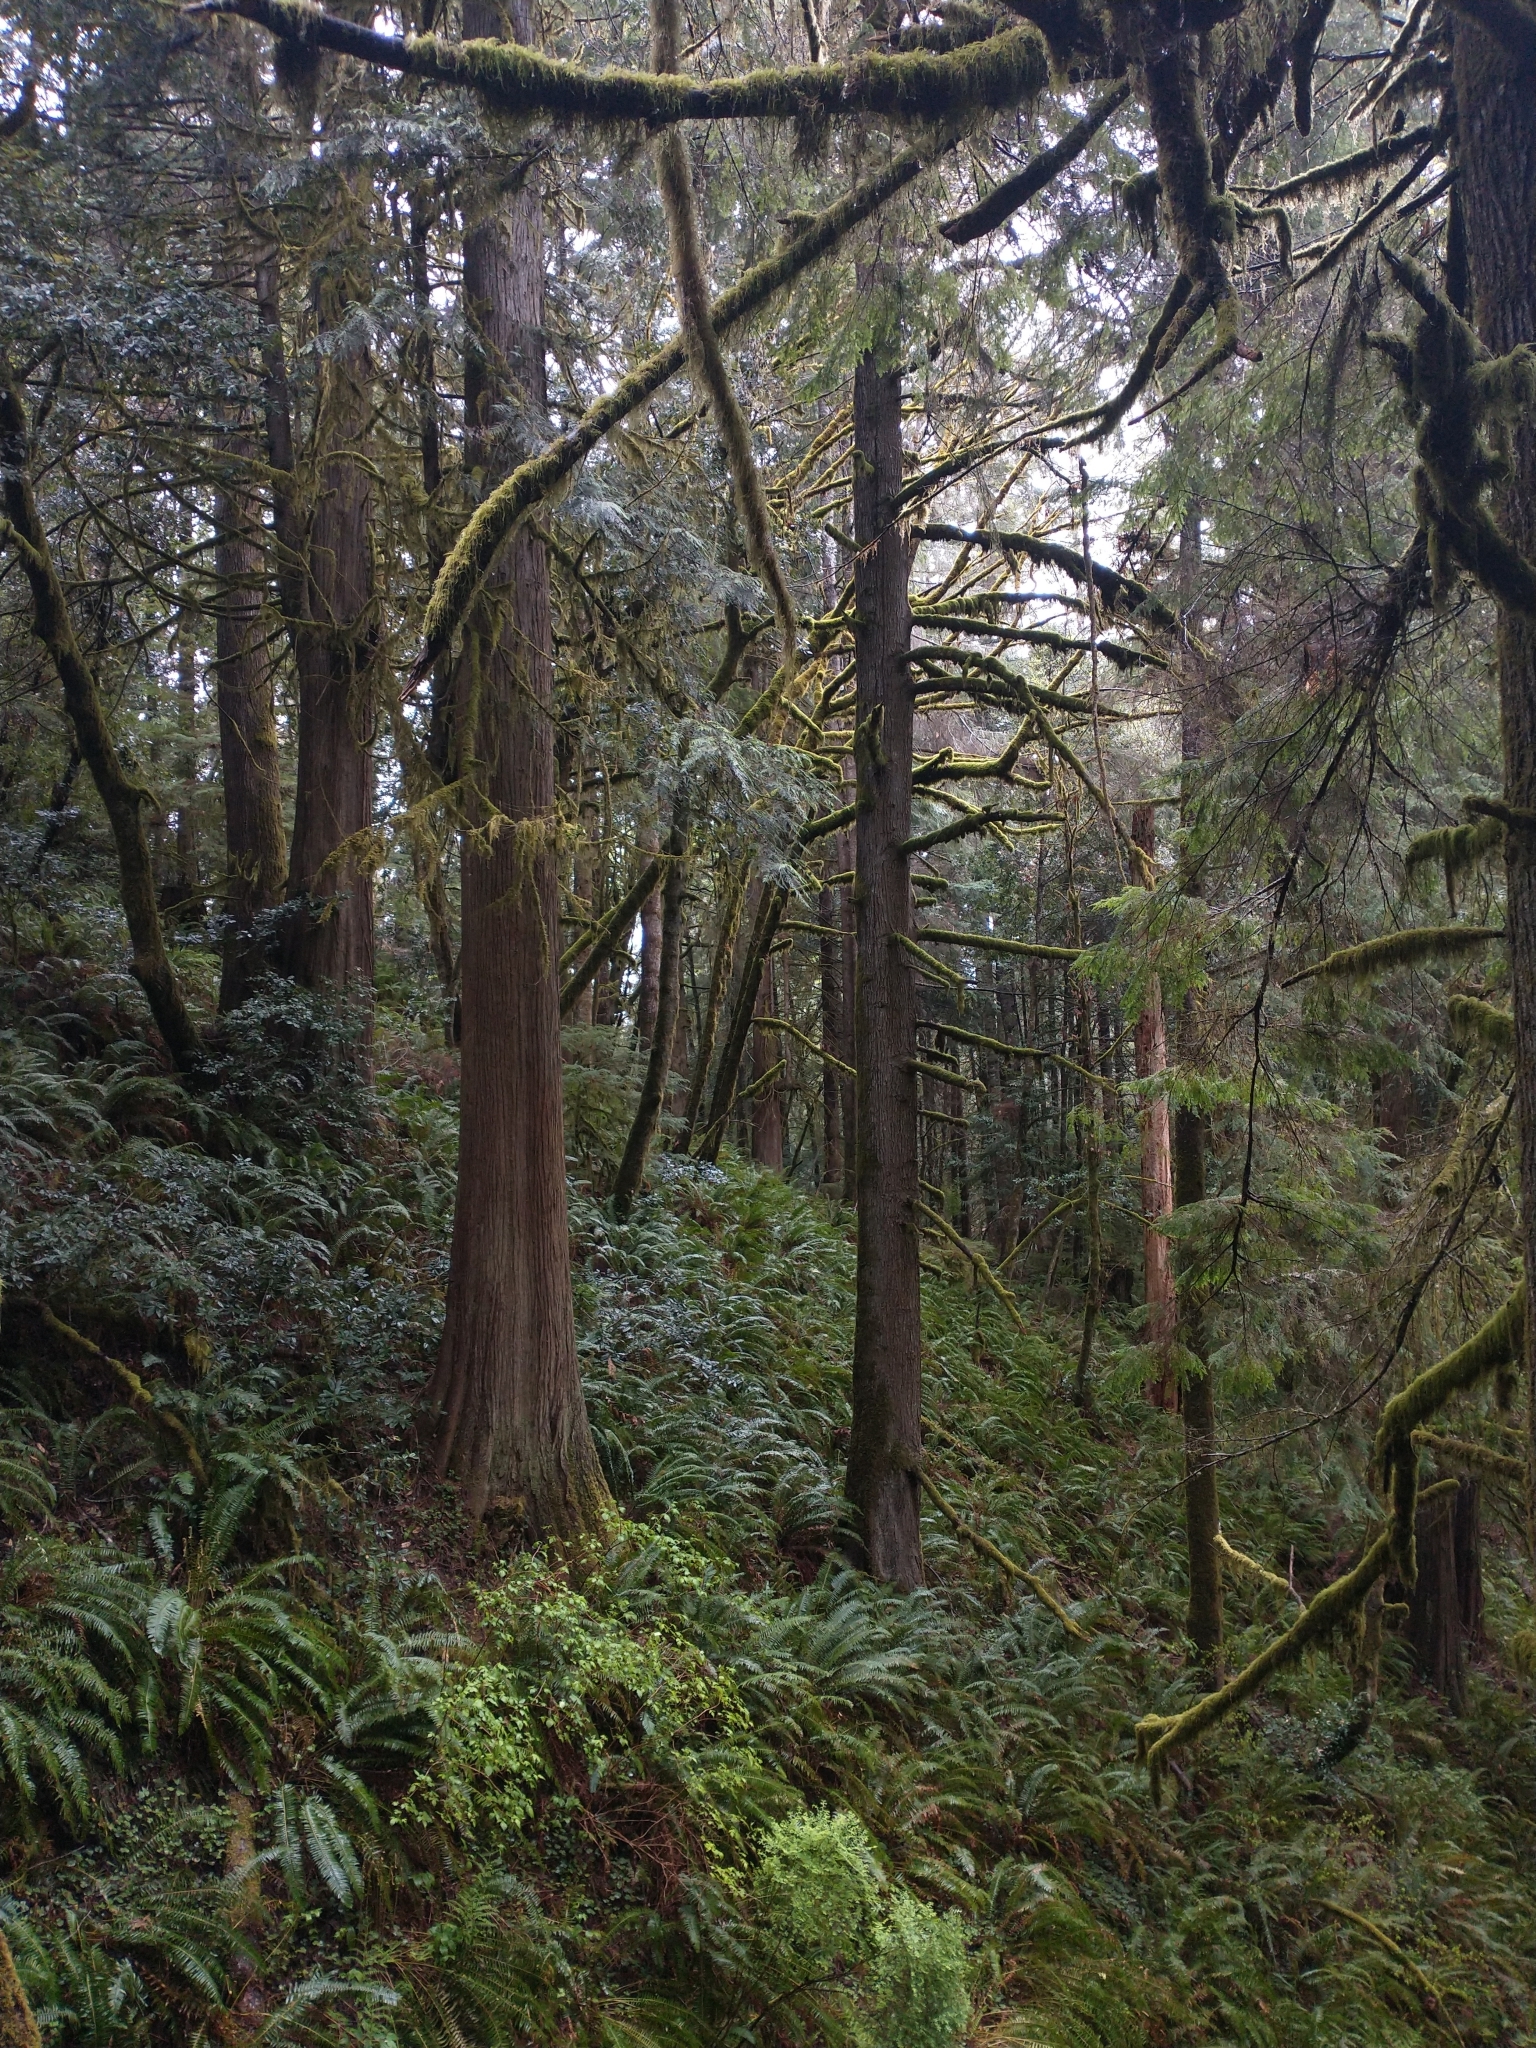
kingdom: Plantae
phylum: Tracheophyta
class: Pinopsida
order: Pinales
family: Pinaceae
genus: Tsuga
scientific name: Tsuga heterophylla
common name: Western hemlock
